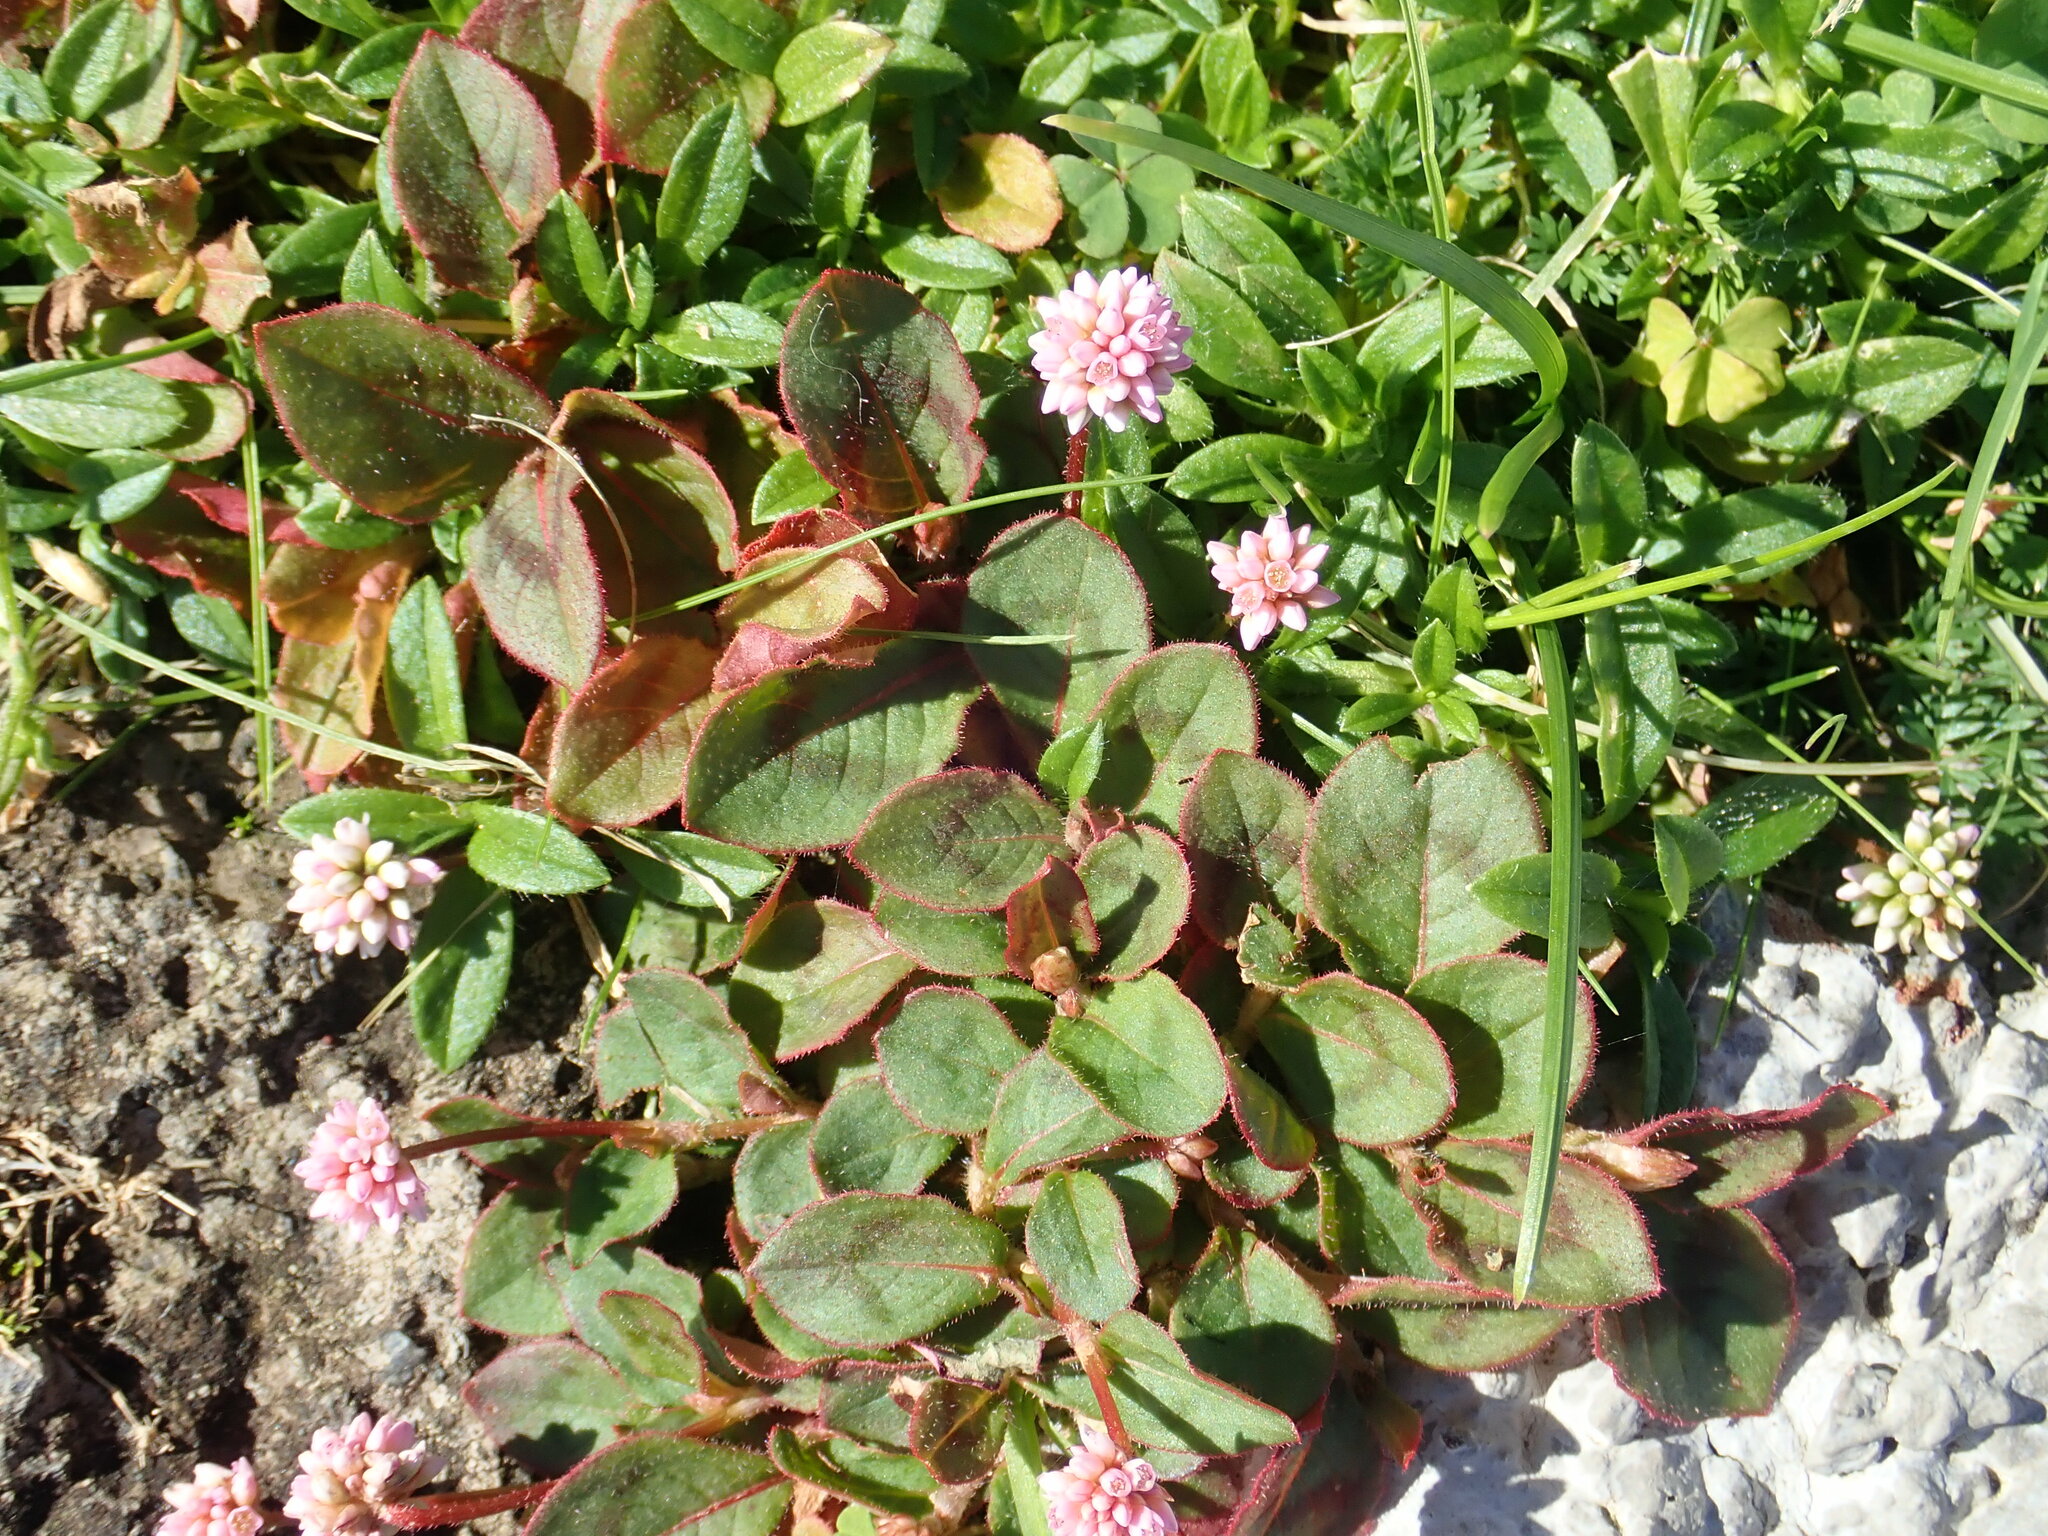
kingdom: Plantae
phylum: Tracheophyta
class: Magnoliopsida
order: Caryophyllales
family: Polygonaceae
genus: Persicaria
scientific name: Persicaria capitata
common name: Pinkhead smartweed
